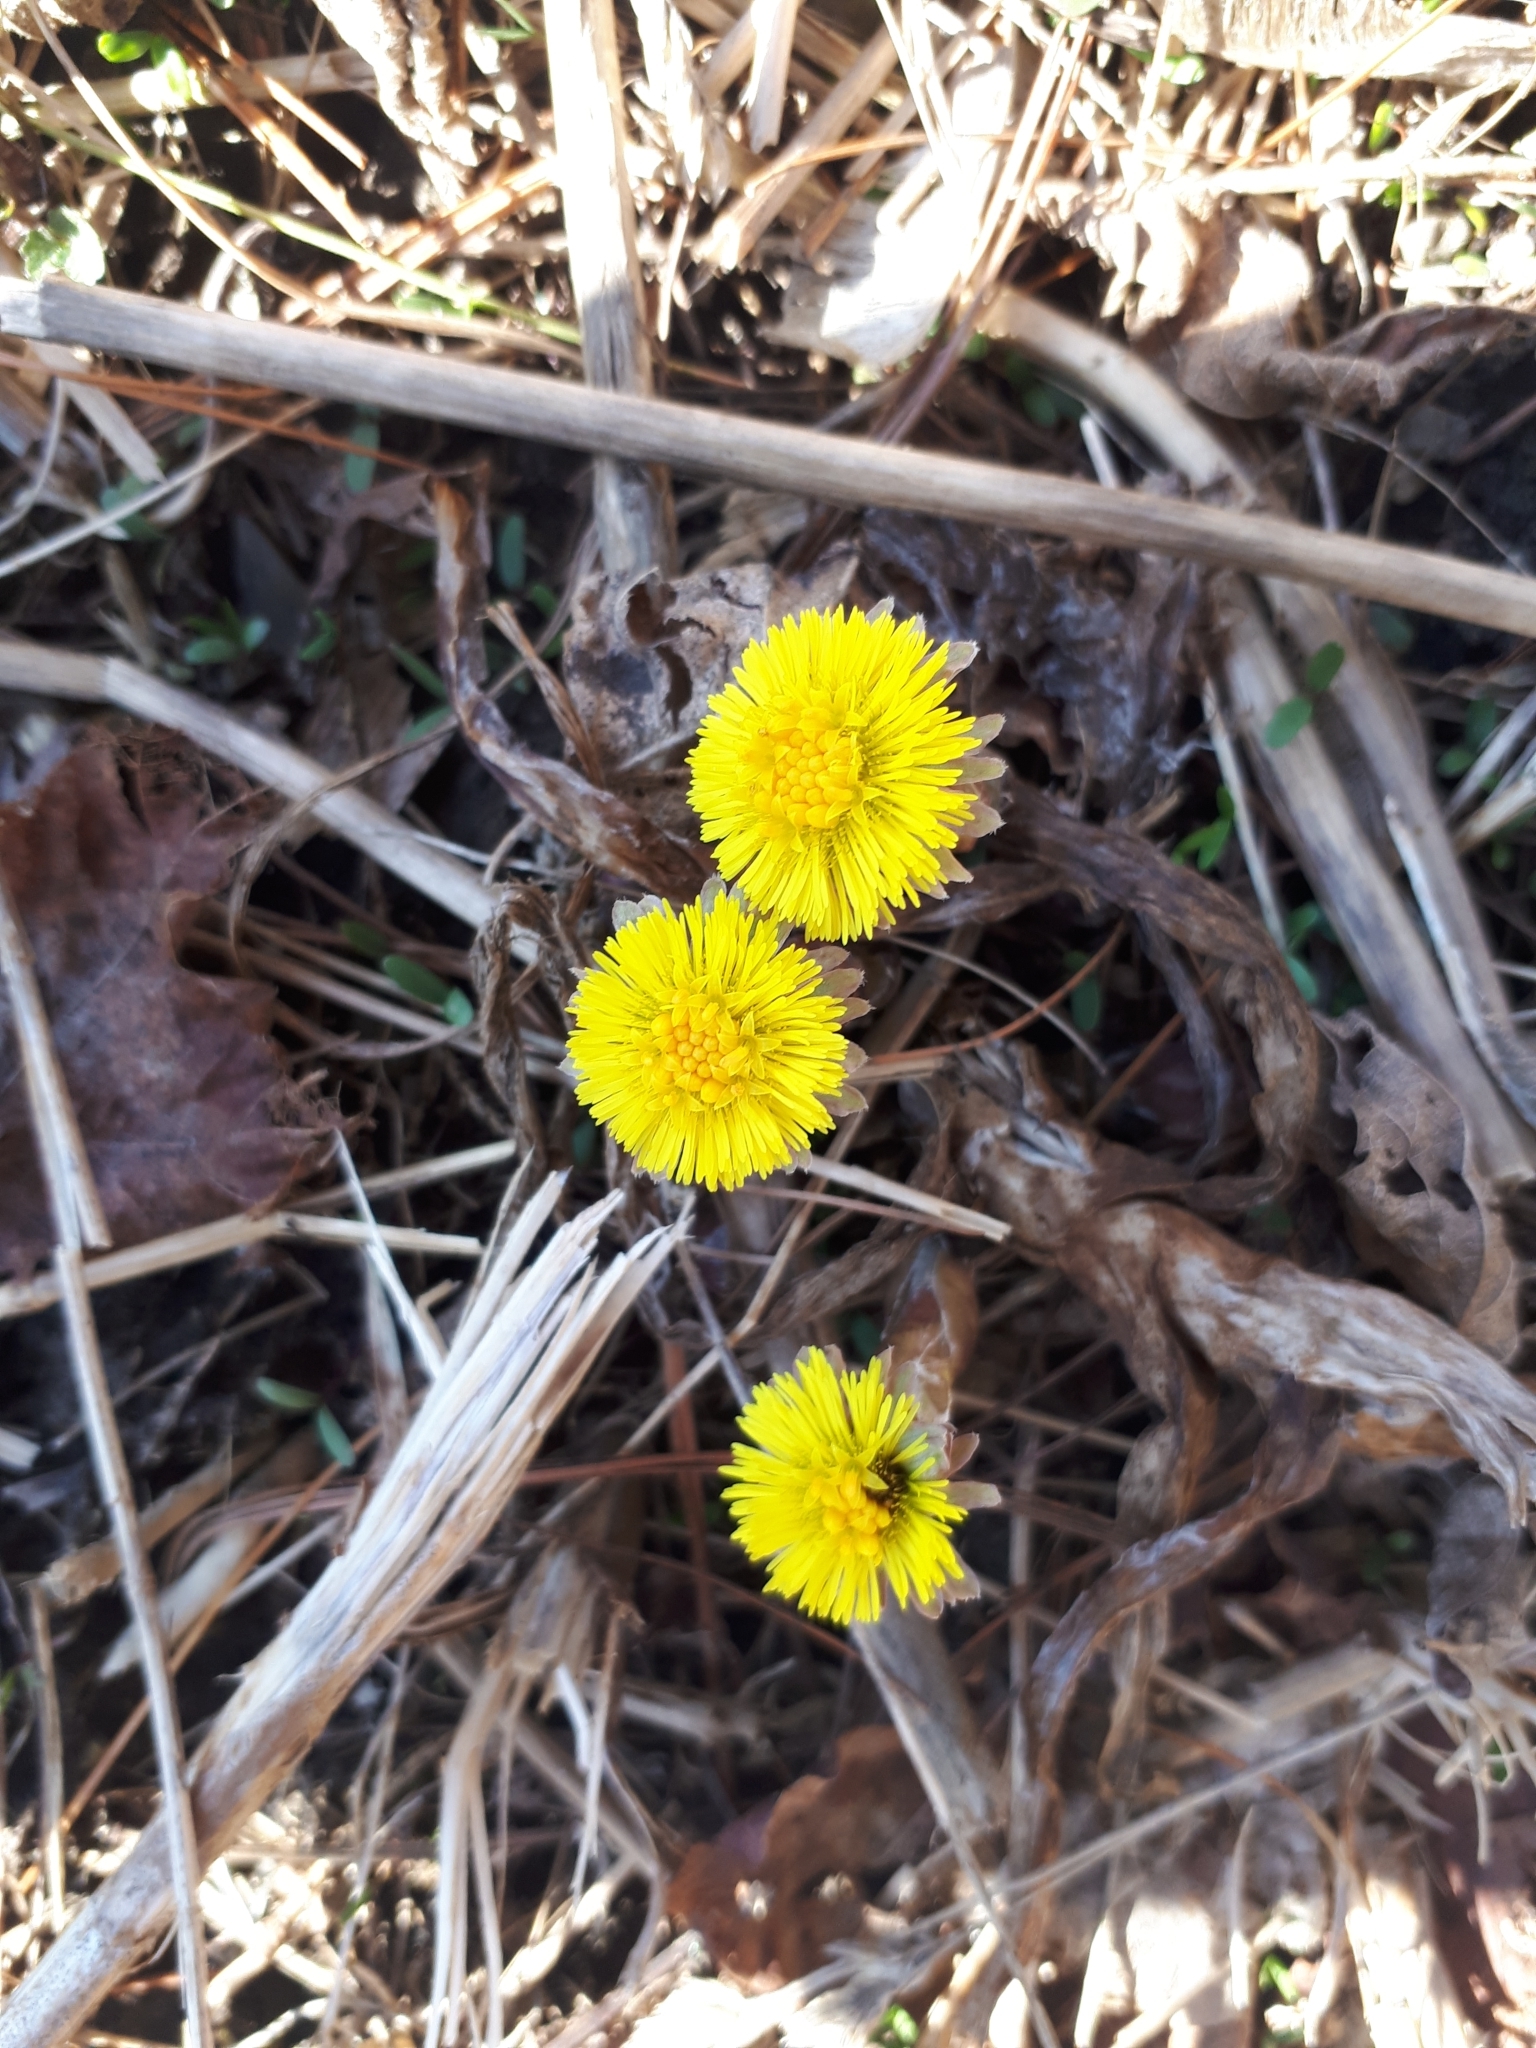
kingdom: Plantae
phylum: Tracheophyta
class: Magnoliopsida
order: Asterales
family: Asteraceae
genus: Tussilago
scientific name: Tussilago farfara
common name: Coltsfoot
